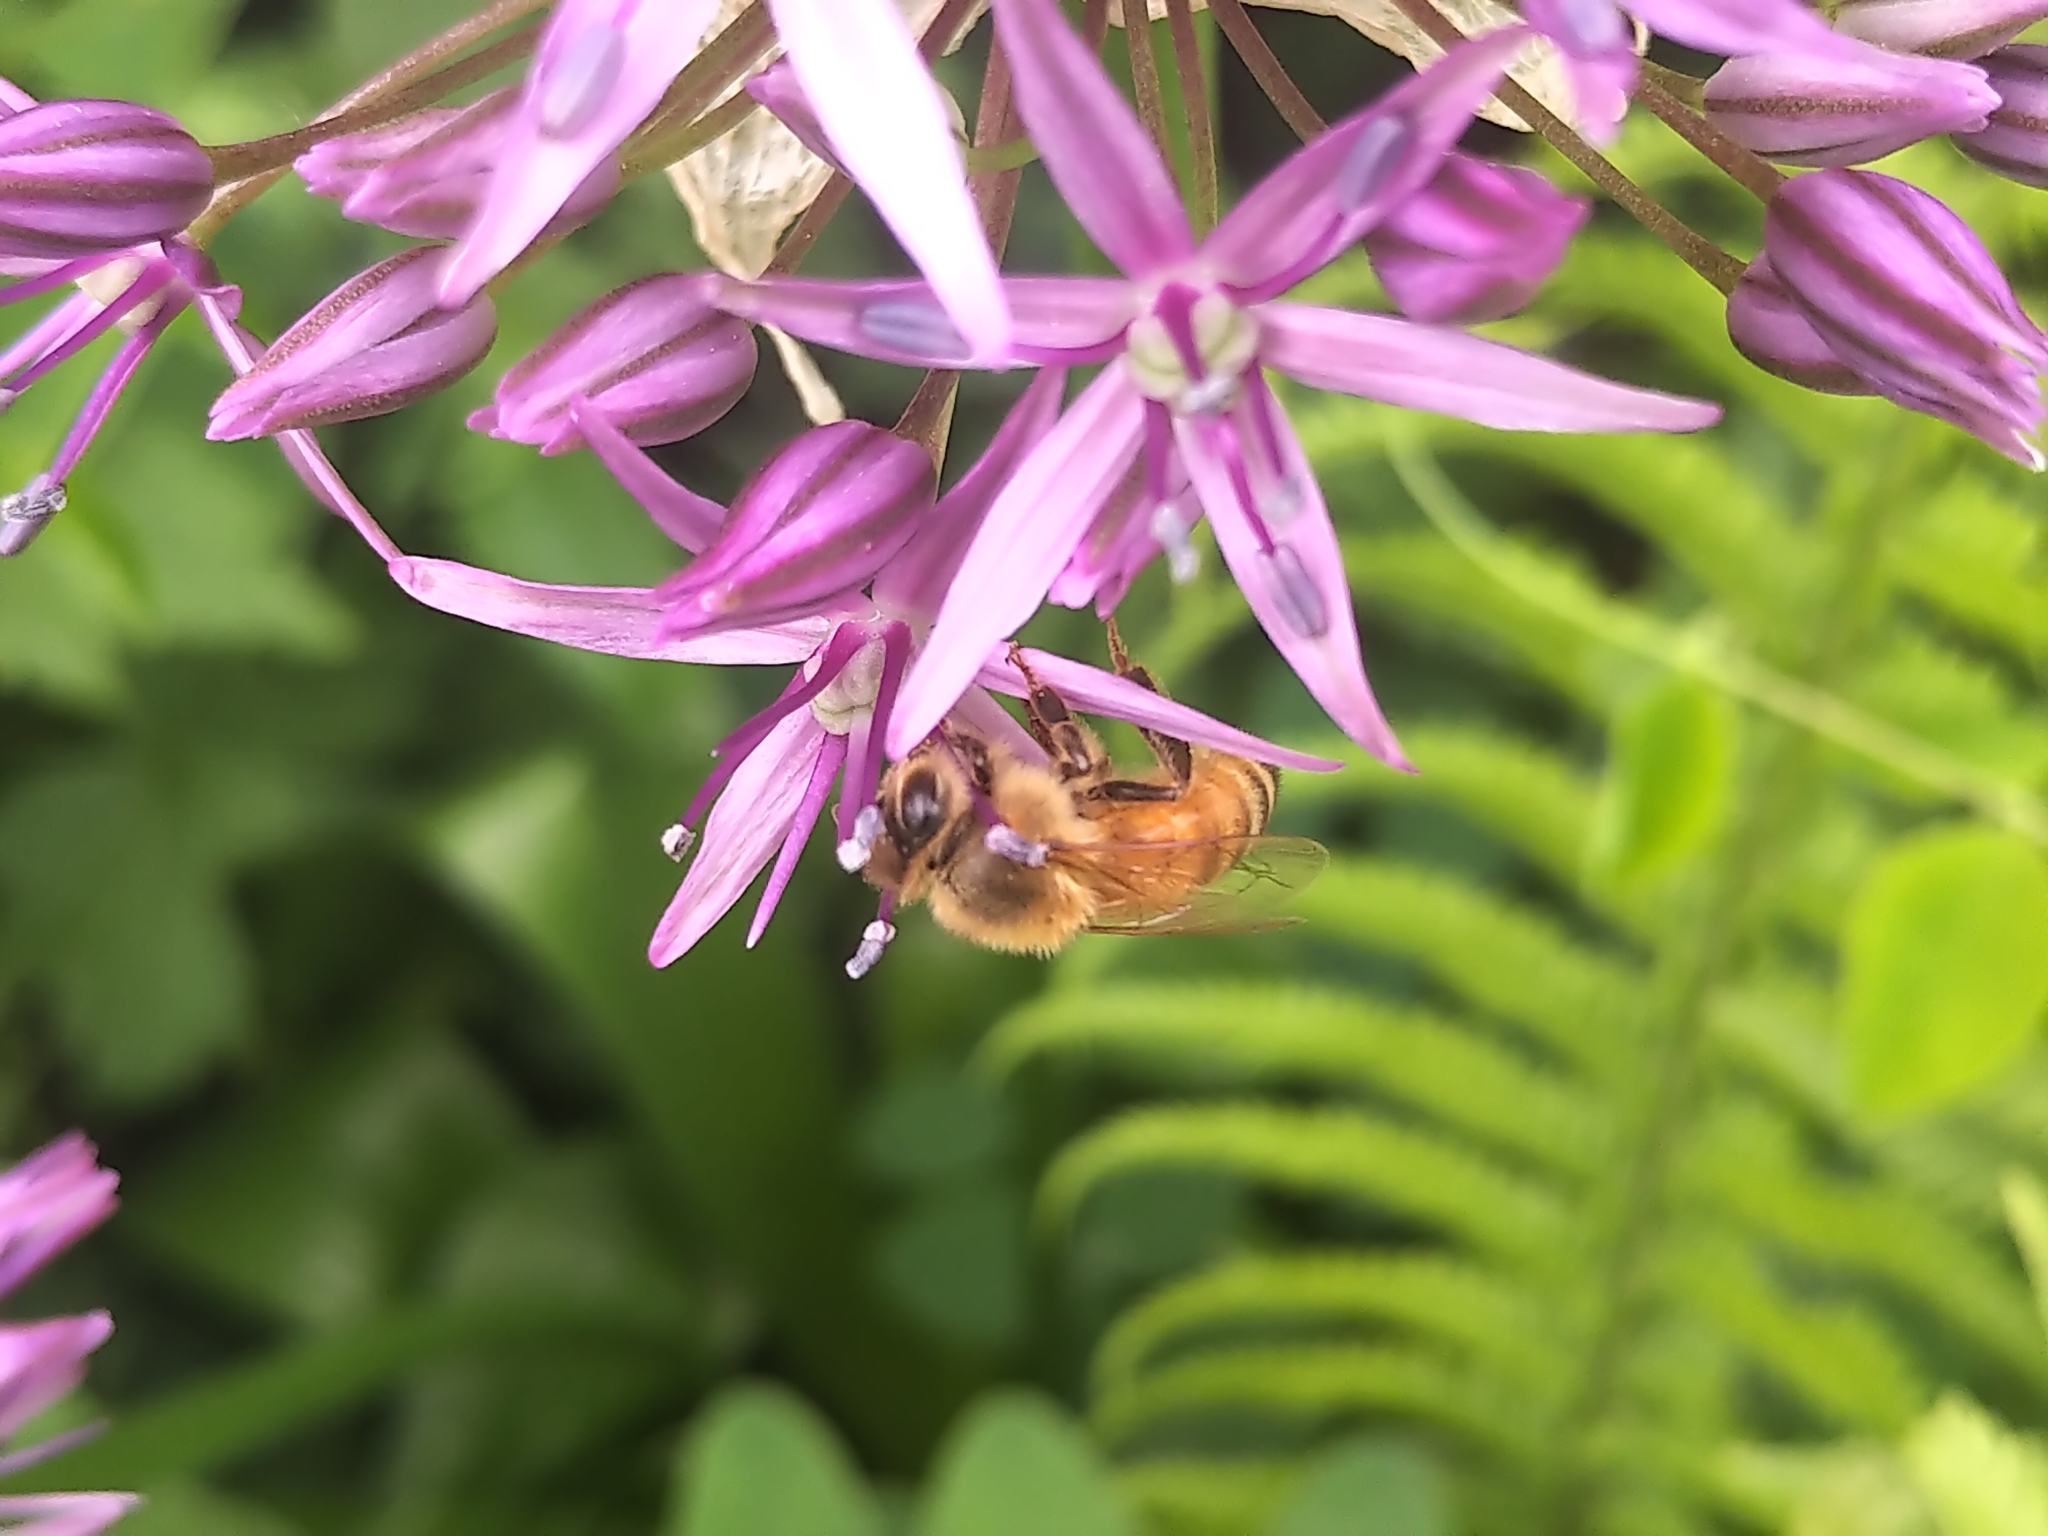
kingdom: Animalia
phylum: Arthropoda
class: Insecta
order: Hymenoptera
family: Apidae
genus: Apis
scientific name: Apis mellifera
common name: Honey bee
